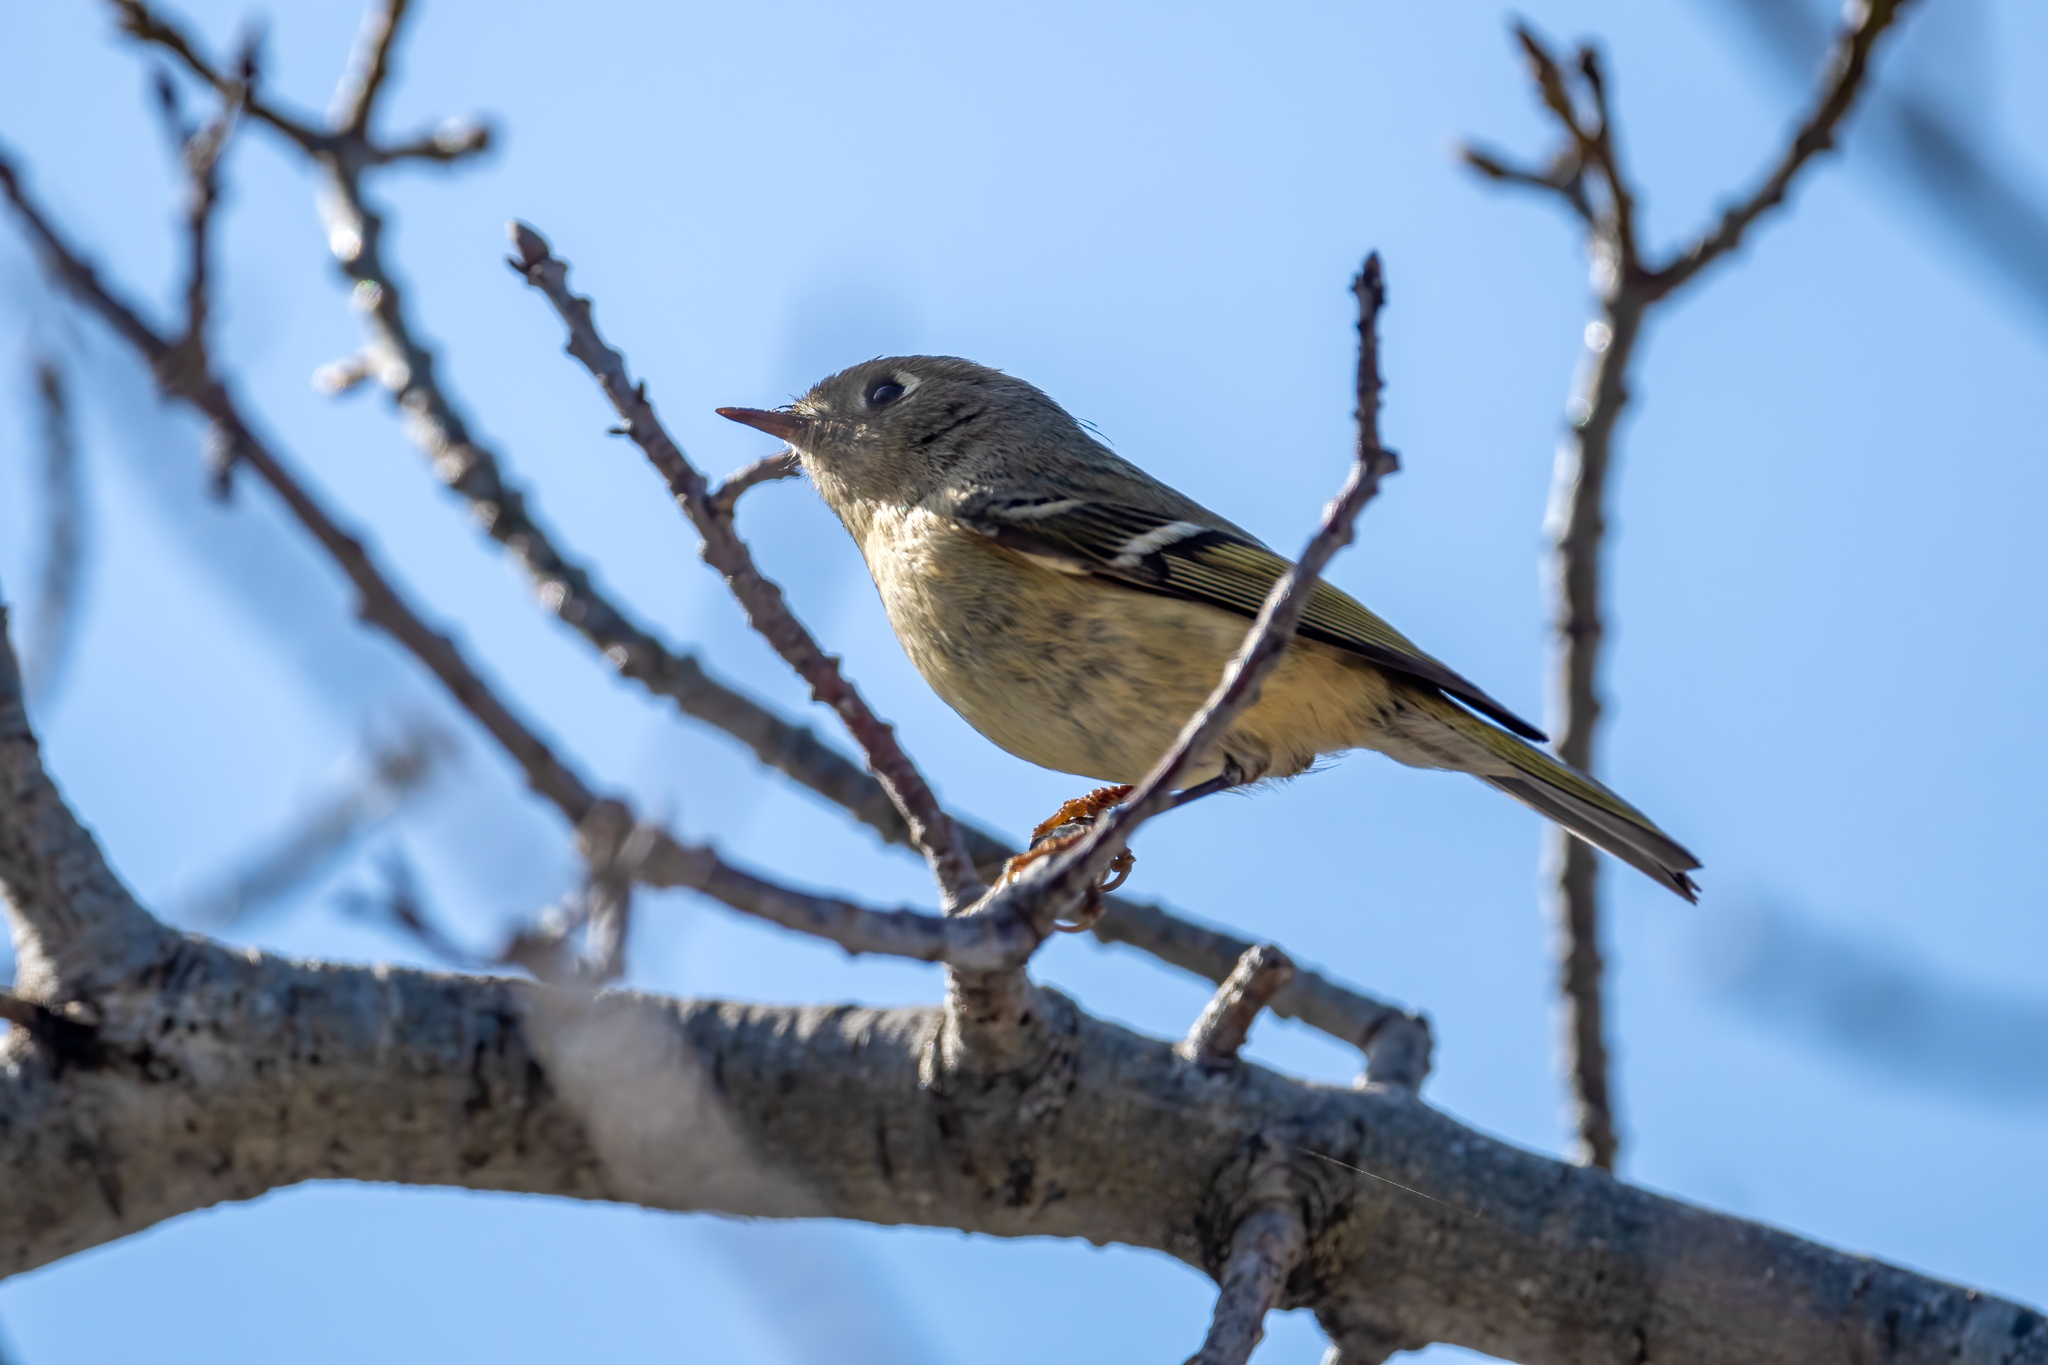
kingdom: Animalia
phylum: Chordata
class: Aves
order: Passeriformes
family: Regulidae
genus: Regulus
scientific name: Regulus calendula
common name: Ruby-crowned kinglet
